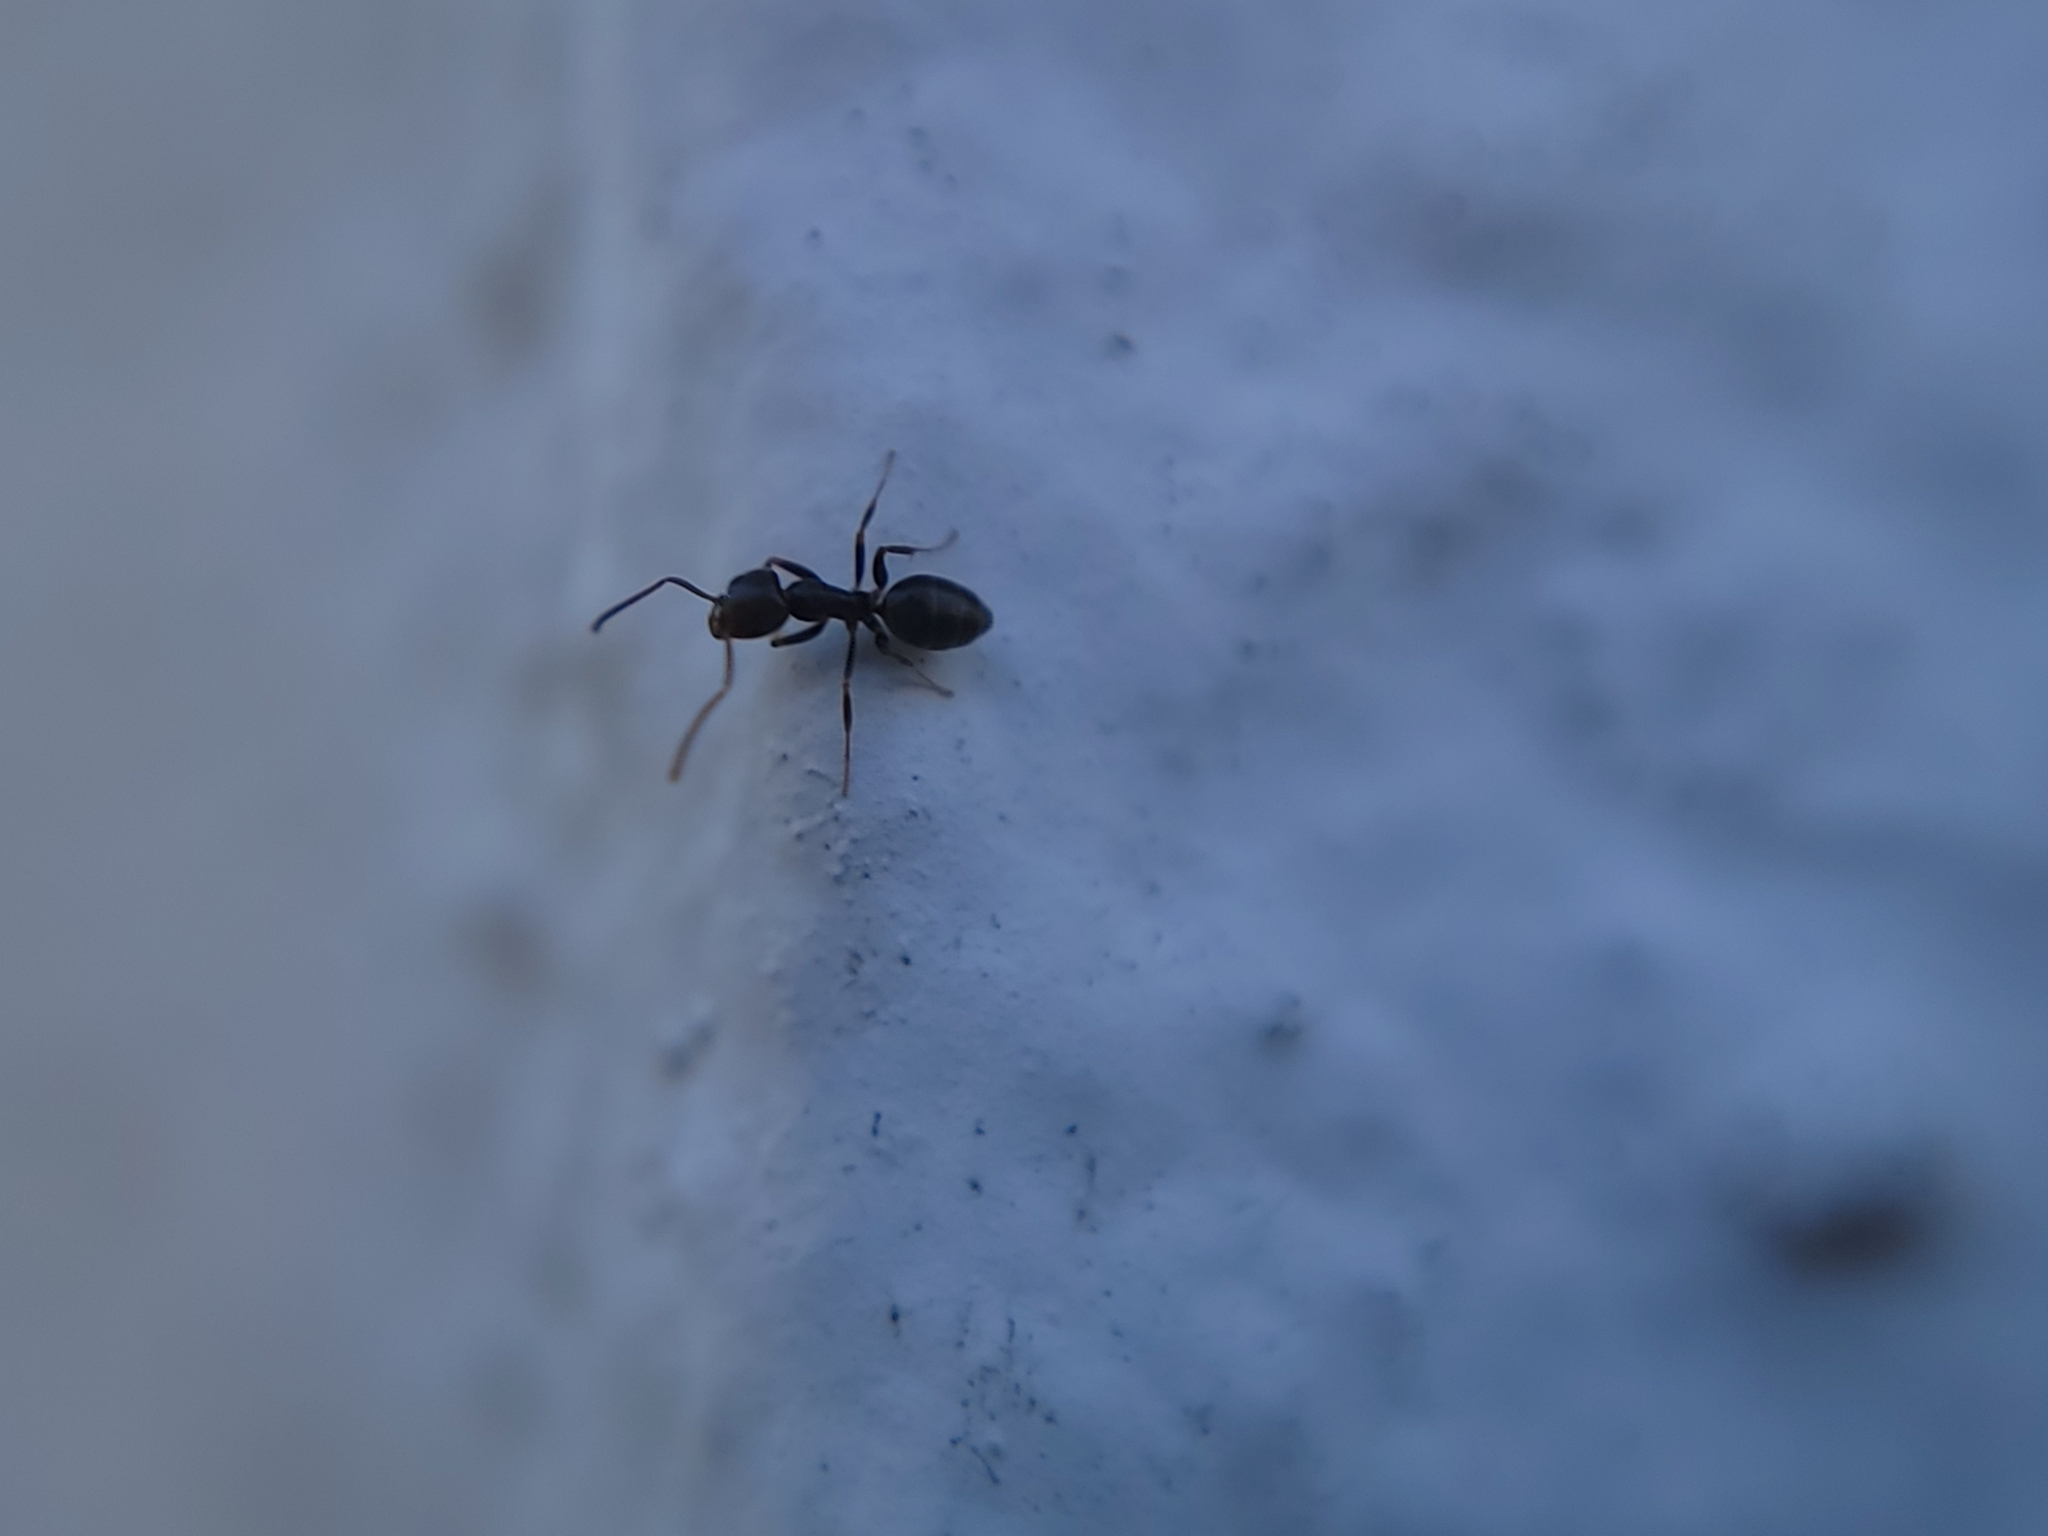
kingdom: Animalia
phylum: Arthropoda
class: Insecta
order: Hymenoptera
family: Formicidae
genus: Tapinoma
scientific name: Tapinoma sessile
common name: Odorous house ant
